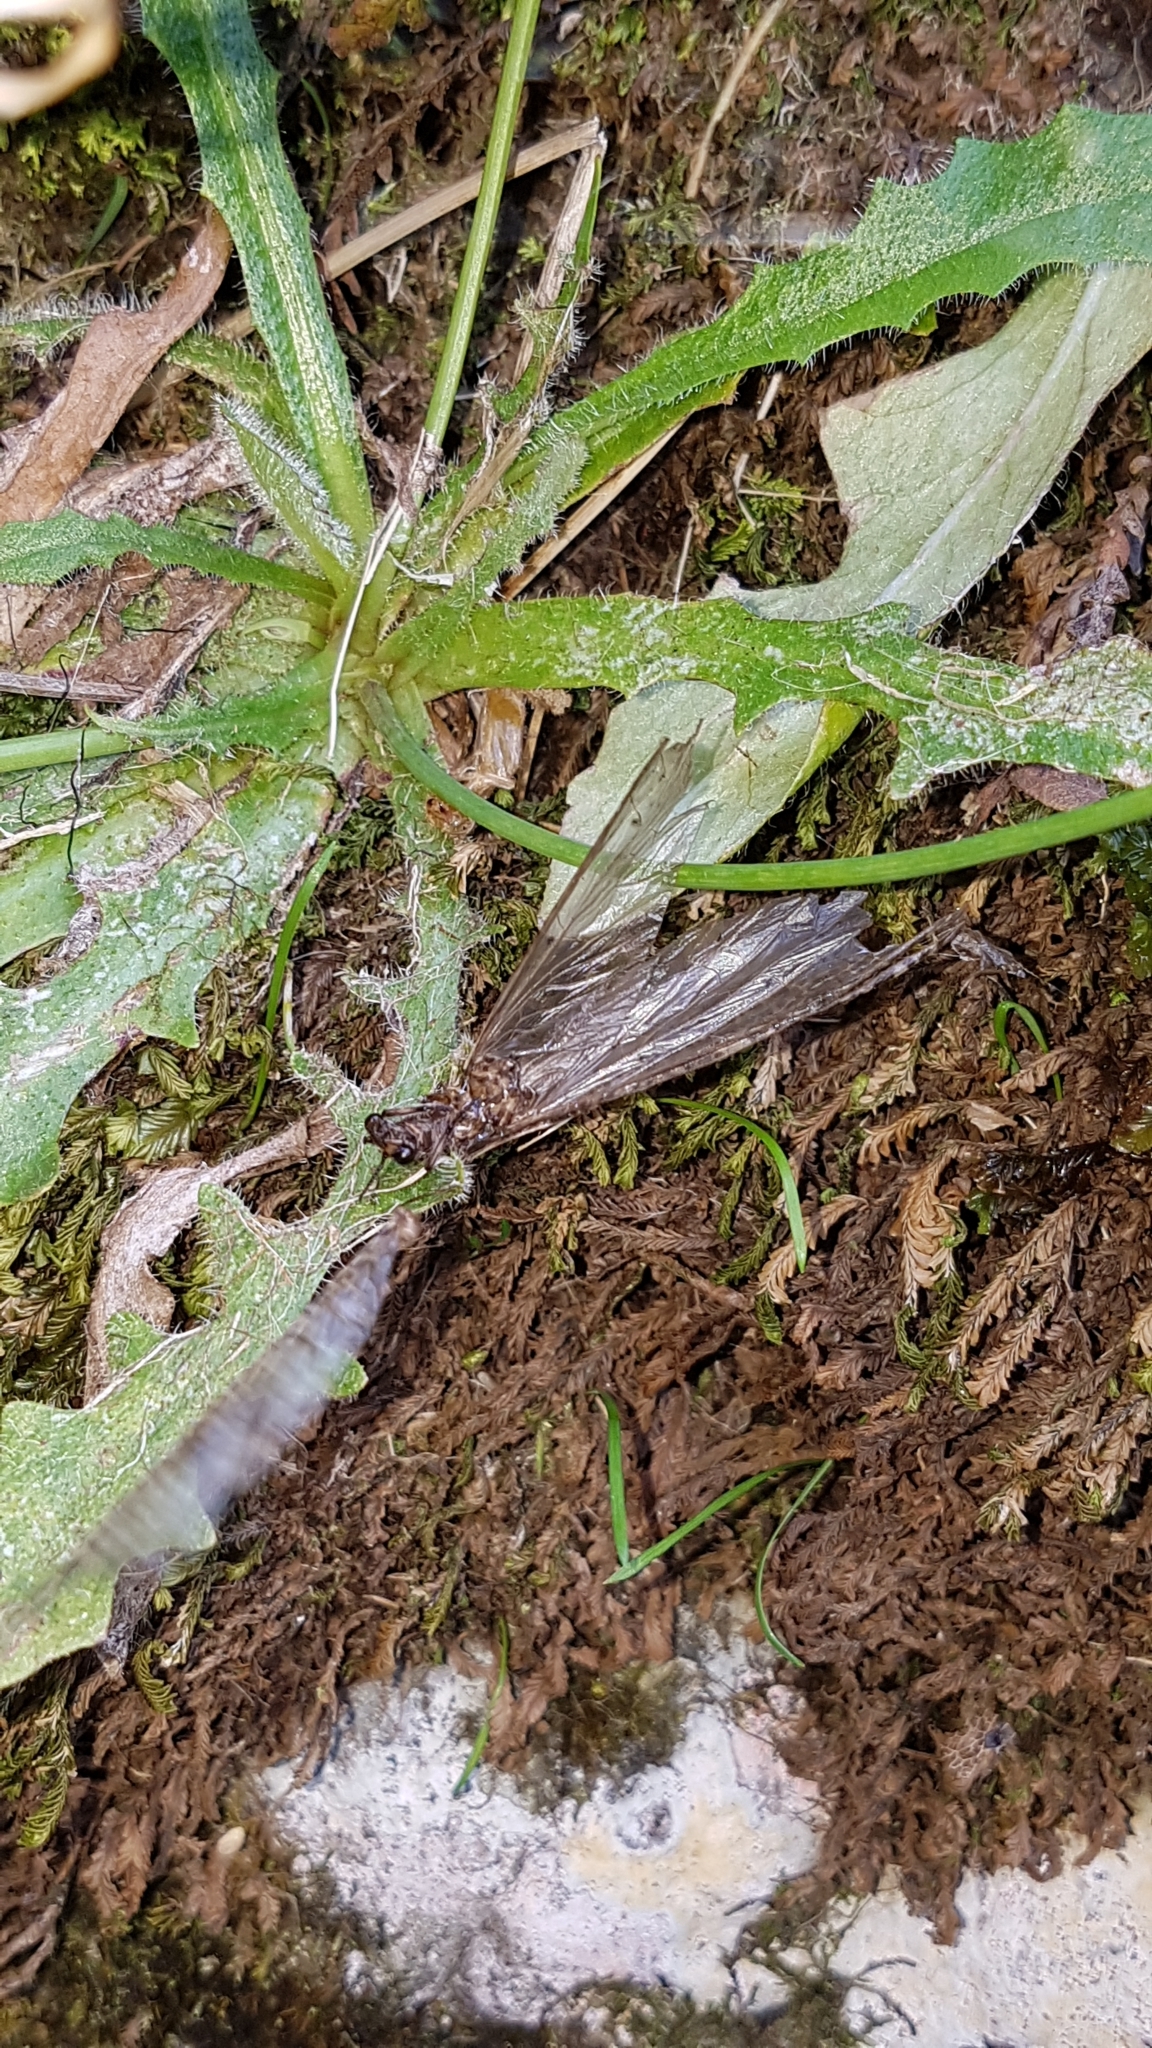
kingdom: Animalia
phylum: Arthropoda
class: Insecta
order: Megaloptera
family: Corydalidae
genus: Archichauliodes
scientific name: Archichauliodes diversus
